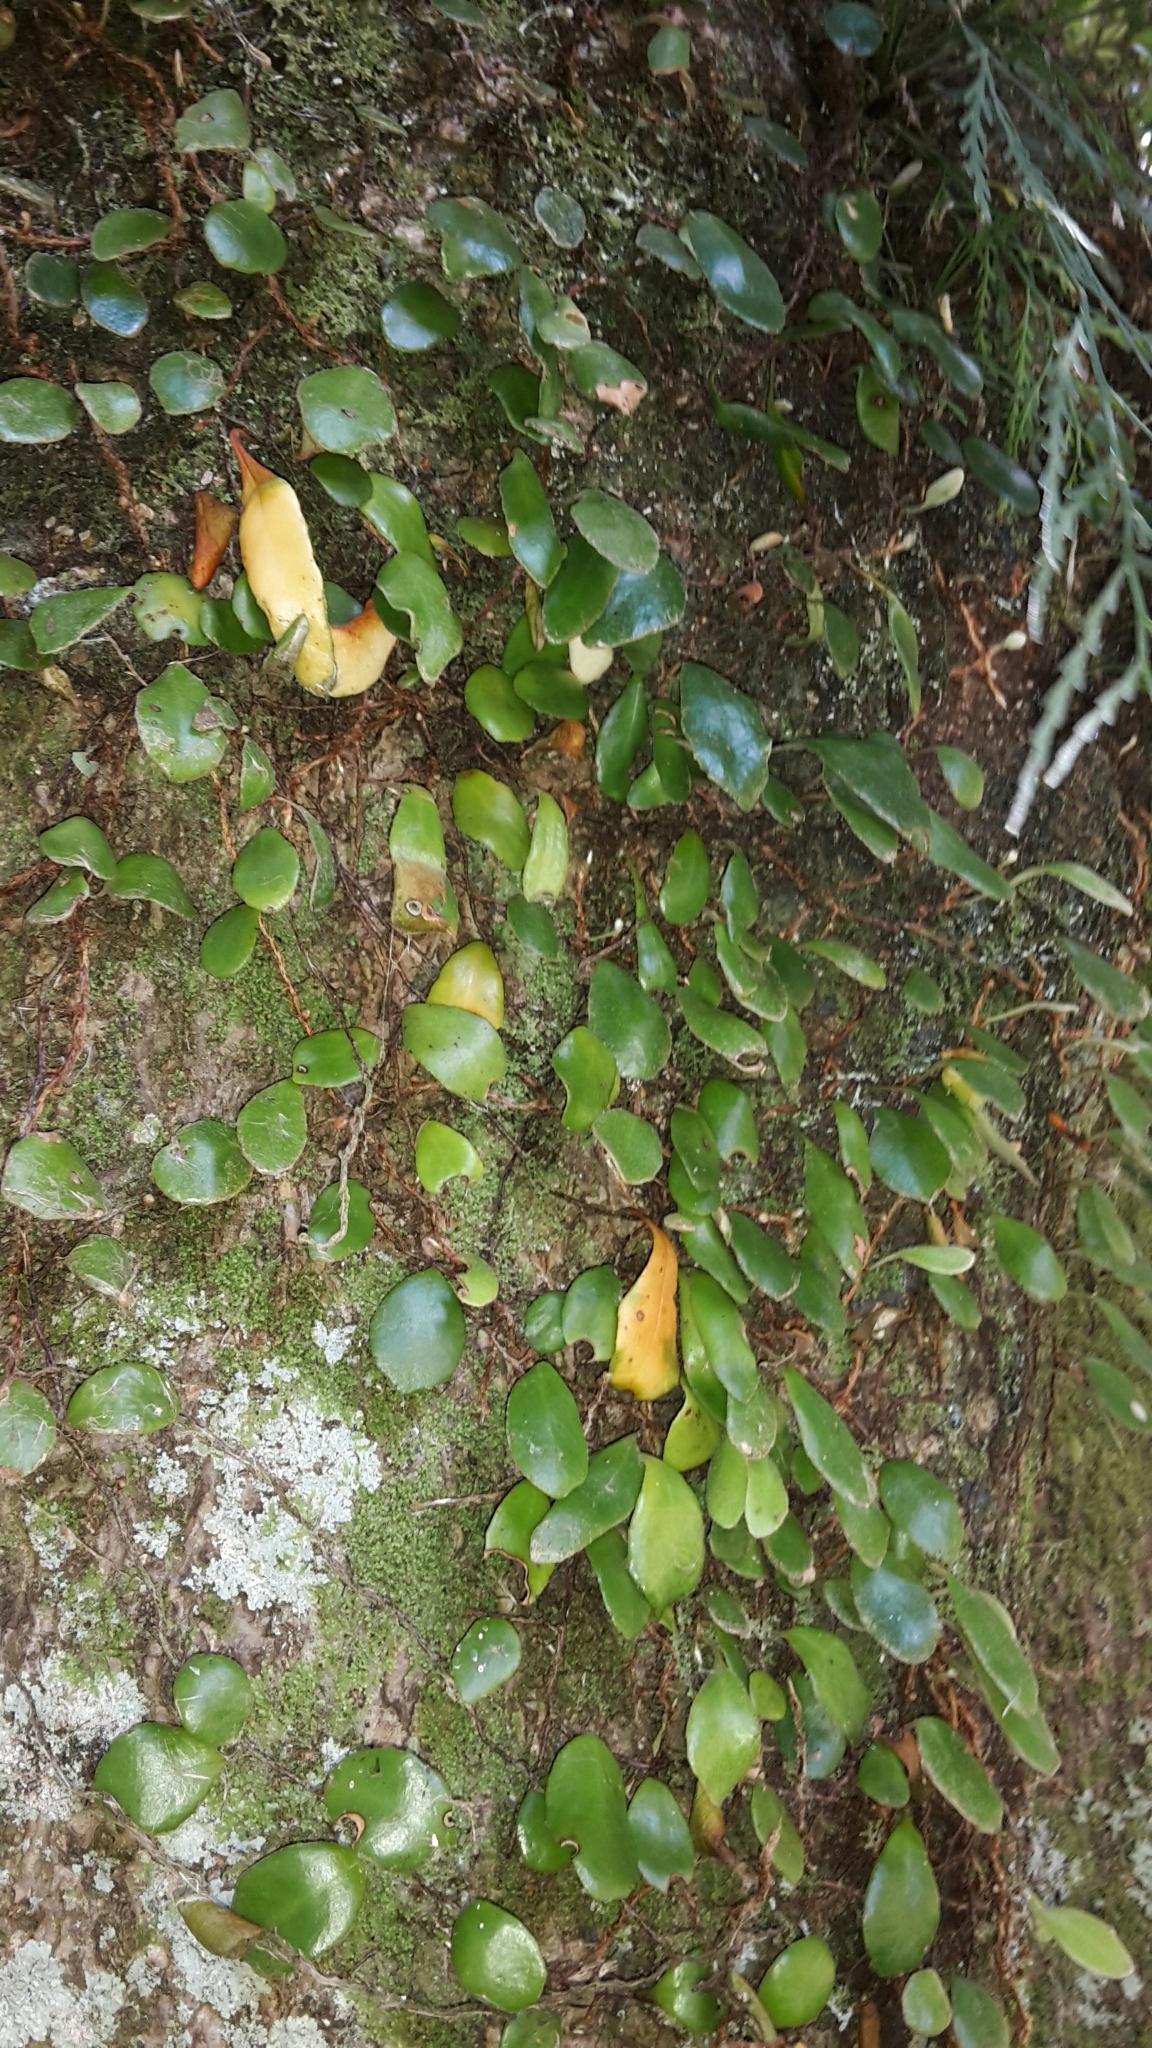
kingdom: Plantae
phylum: Tracheophyta
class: Polypodiopsida
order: Polypodiales
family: Polypodiaceae
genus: Pyrrosia
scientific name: Pyrrosia eleagnifolia
